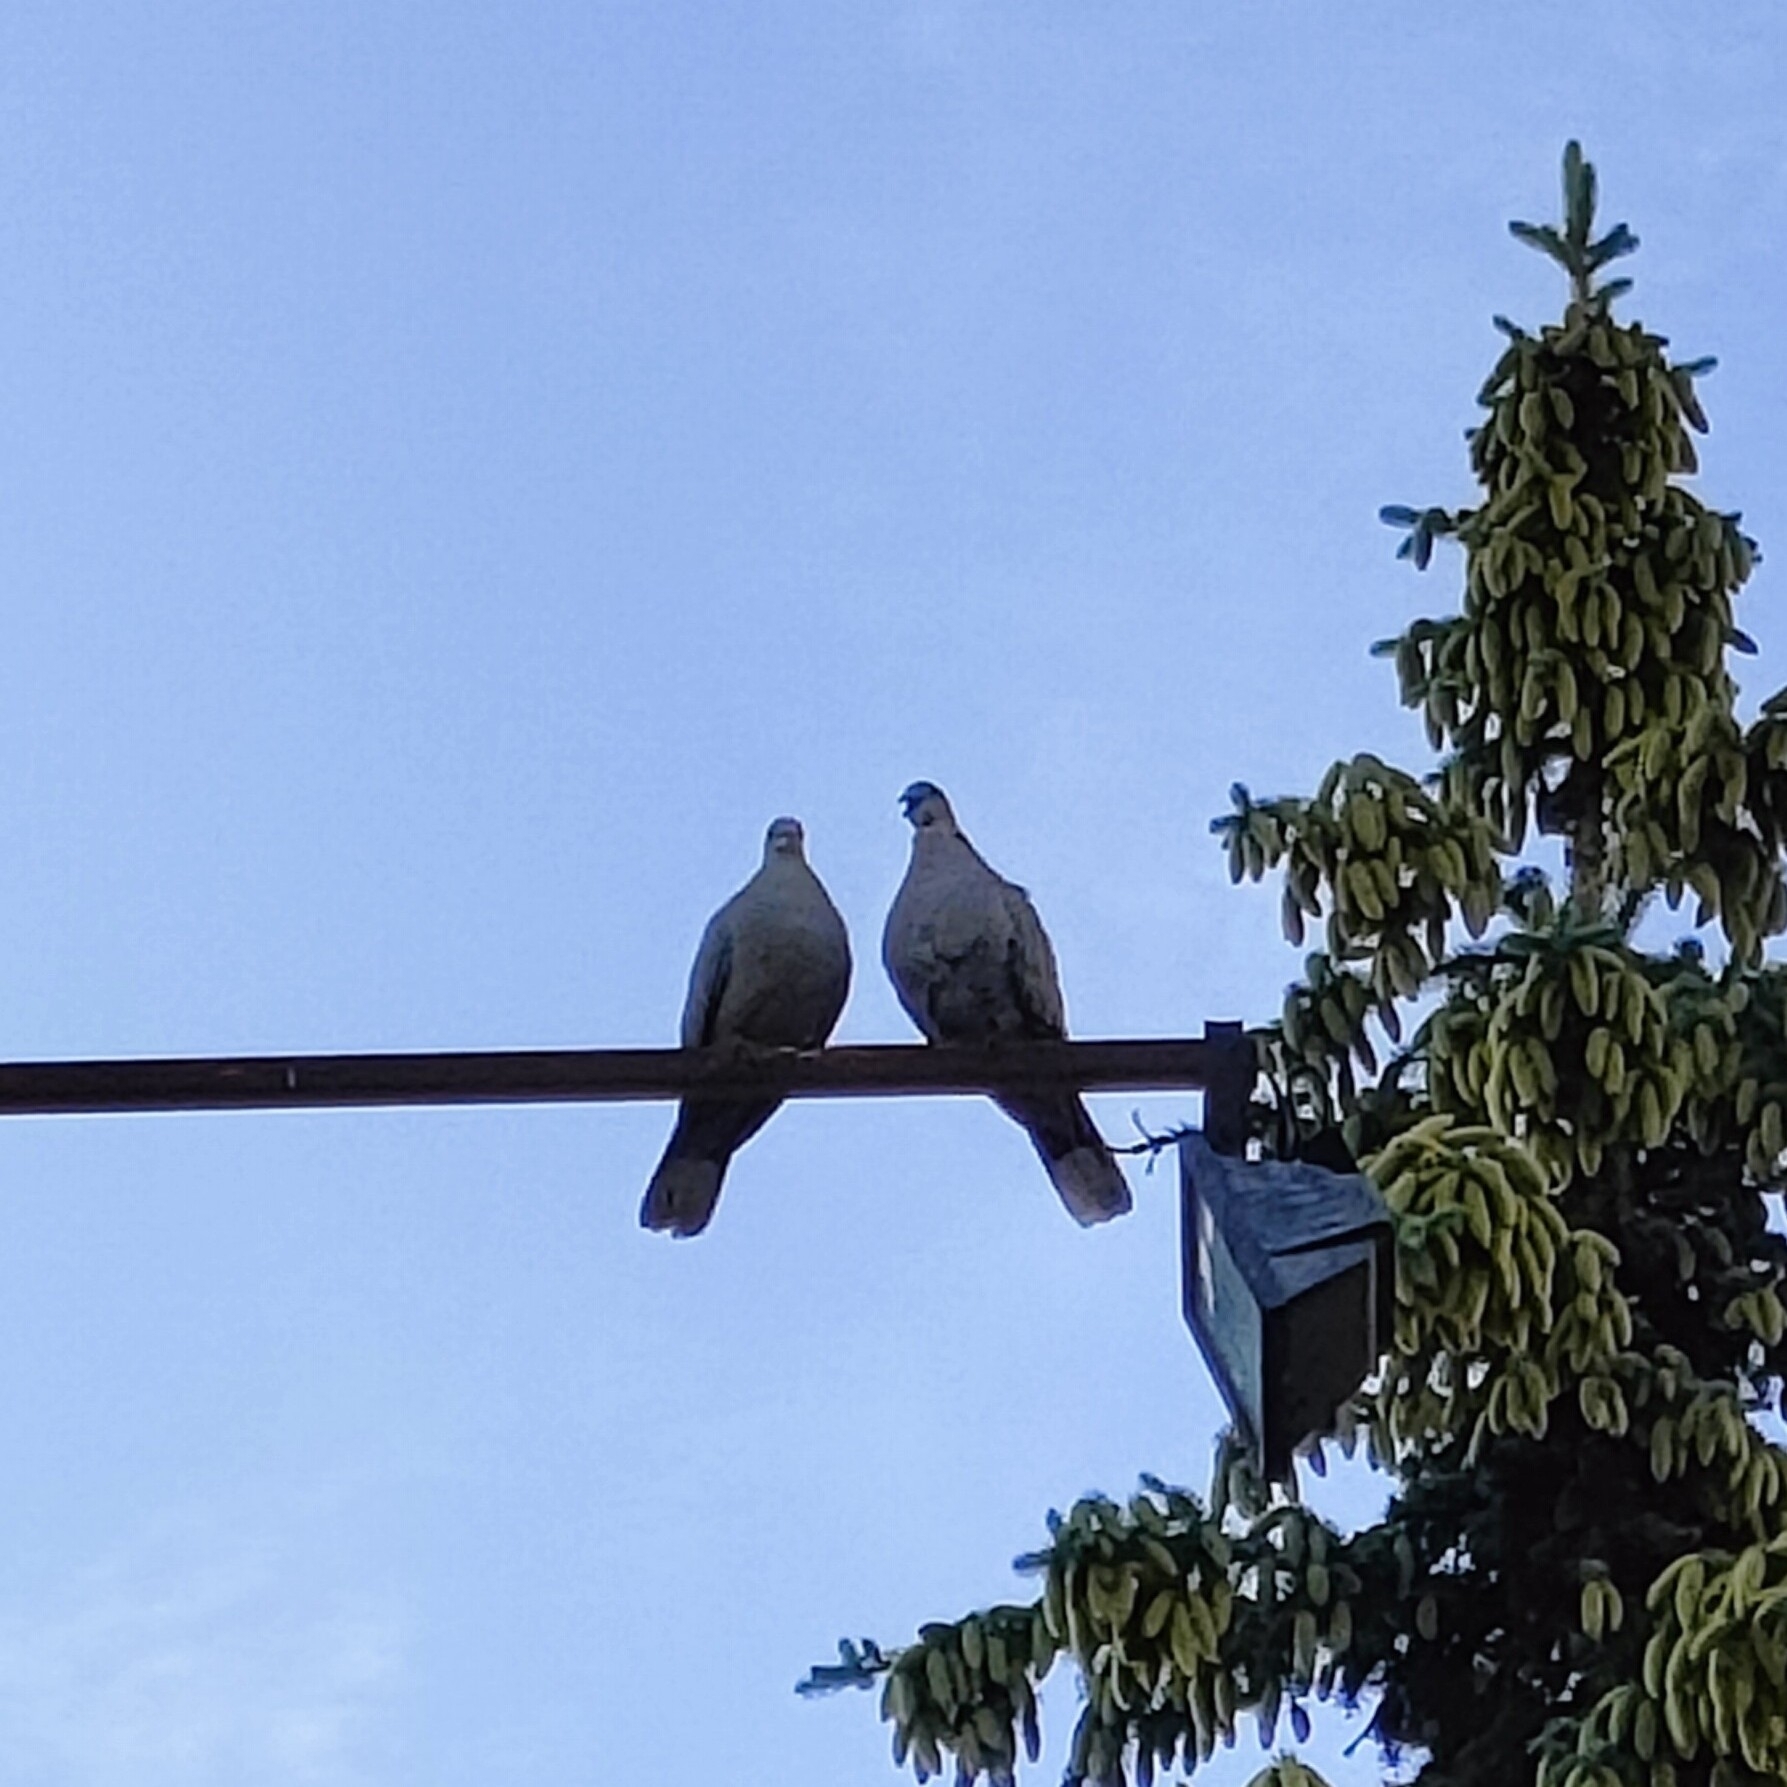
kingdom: Animalia
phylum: Chordata
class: Aves
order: Columbiformes
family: Columbidae
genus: Streptopelia
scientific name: Streptopelia decaocto
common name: Eurasian collared dove
